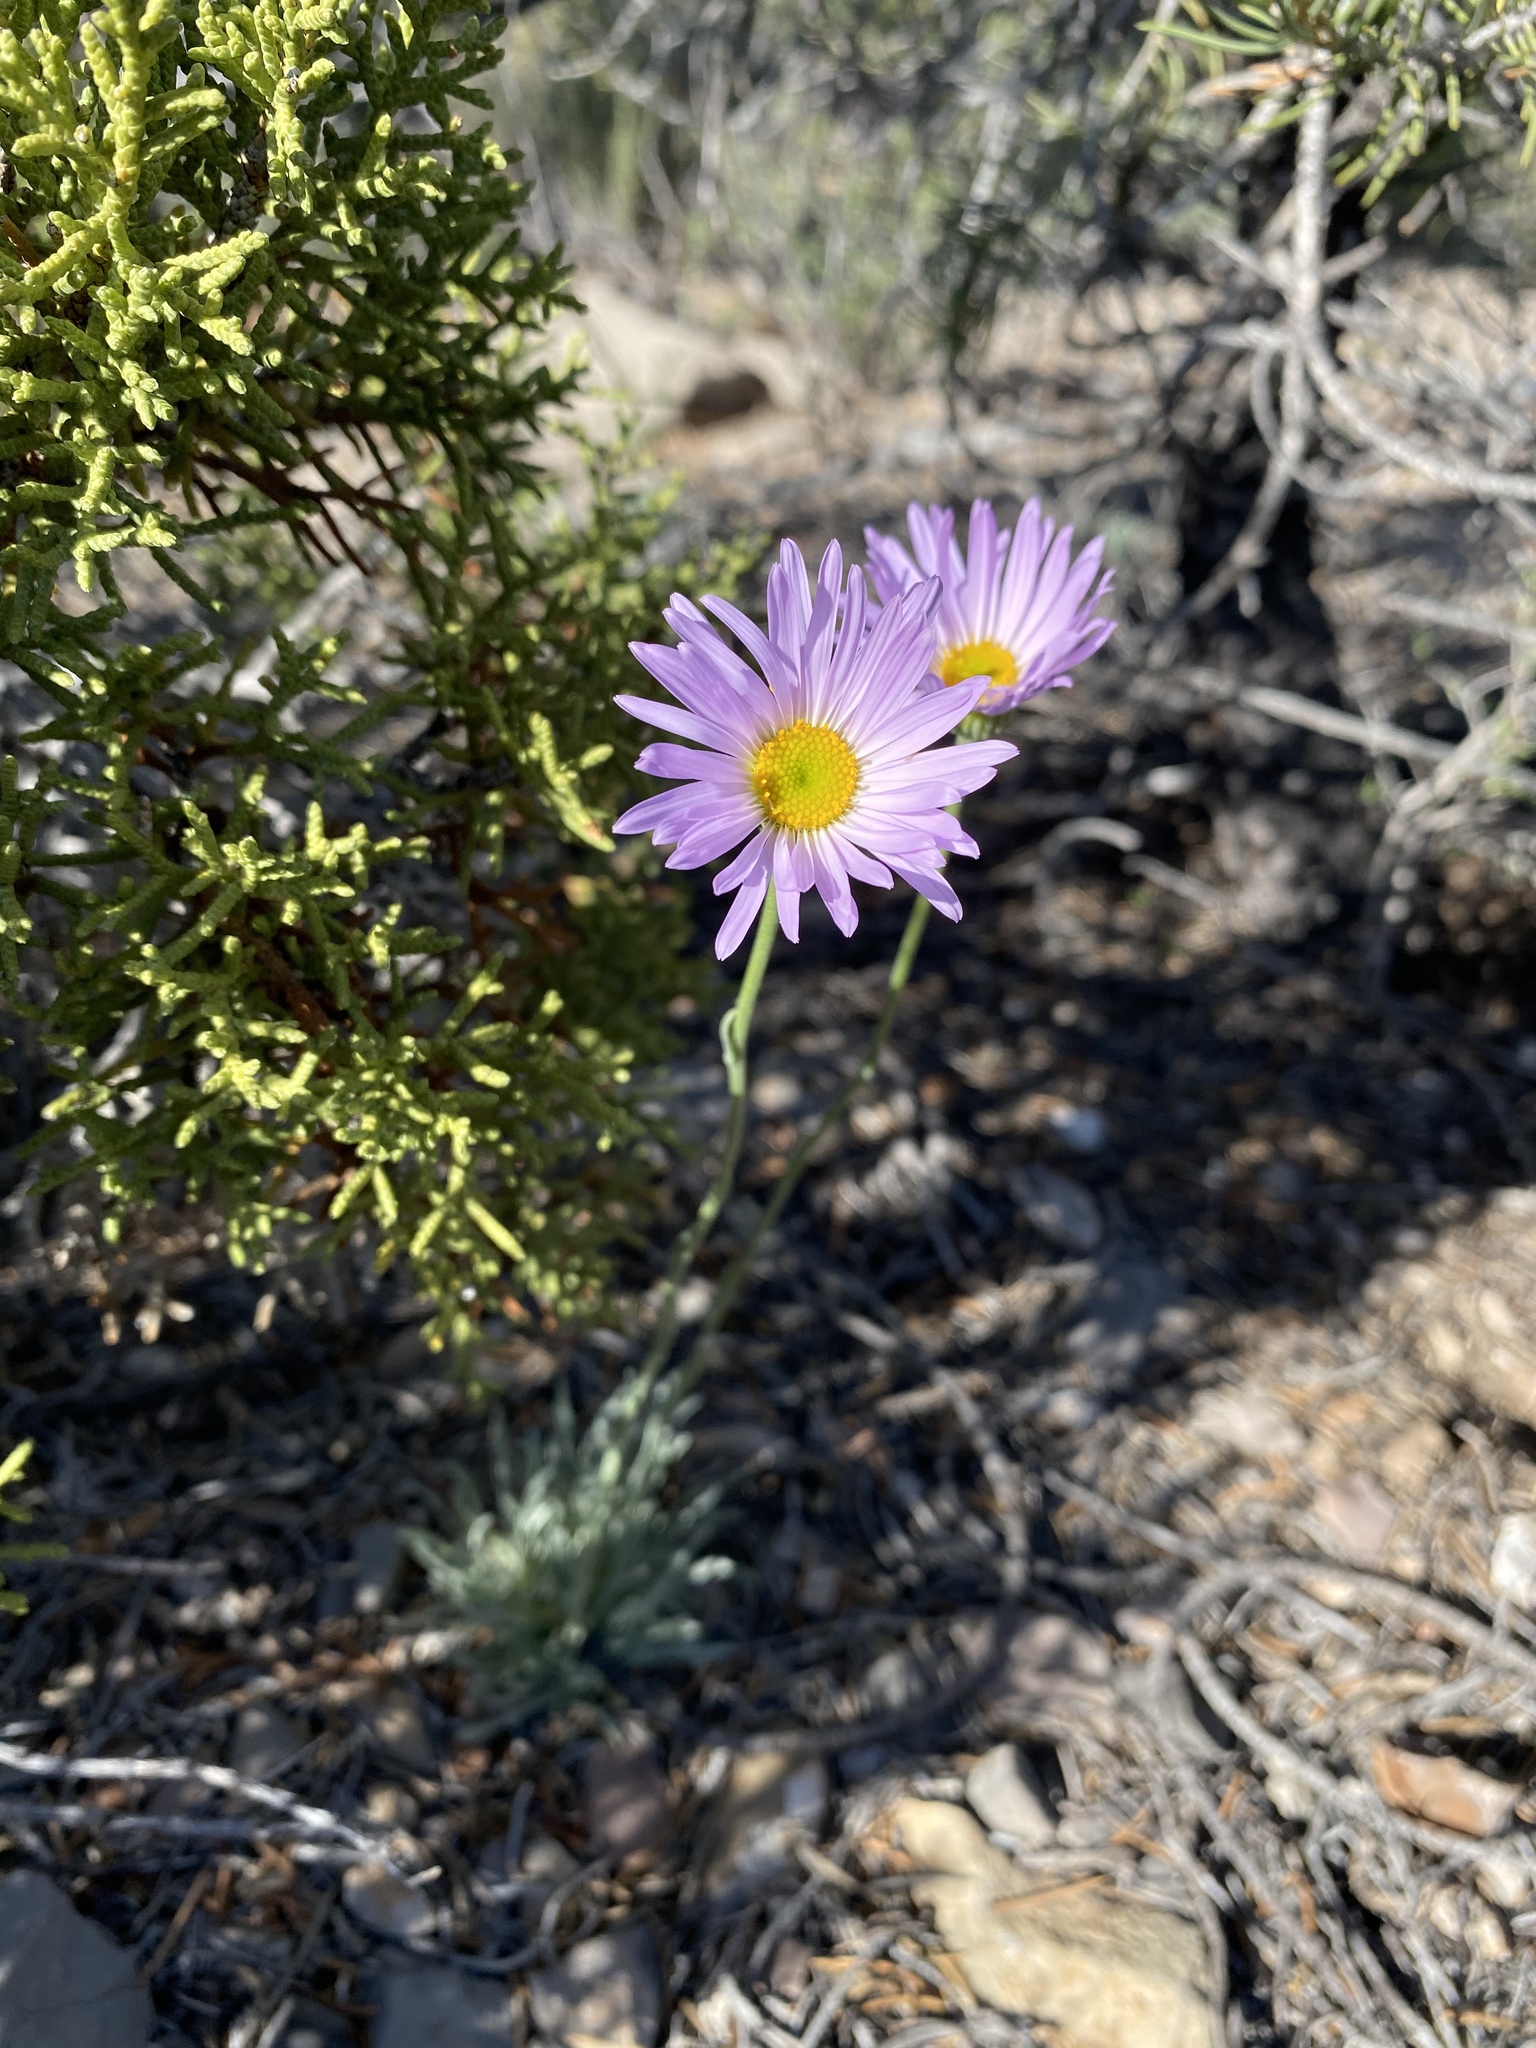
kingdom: Plantae
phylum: Tracheophyta
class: Magnoliopsida
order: Asterales
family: Asteraceae
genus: Erigeron
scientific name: Erigeron argentatus
